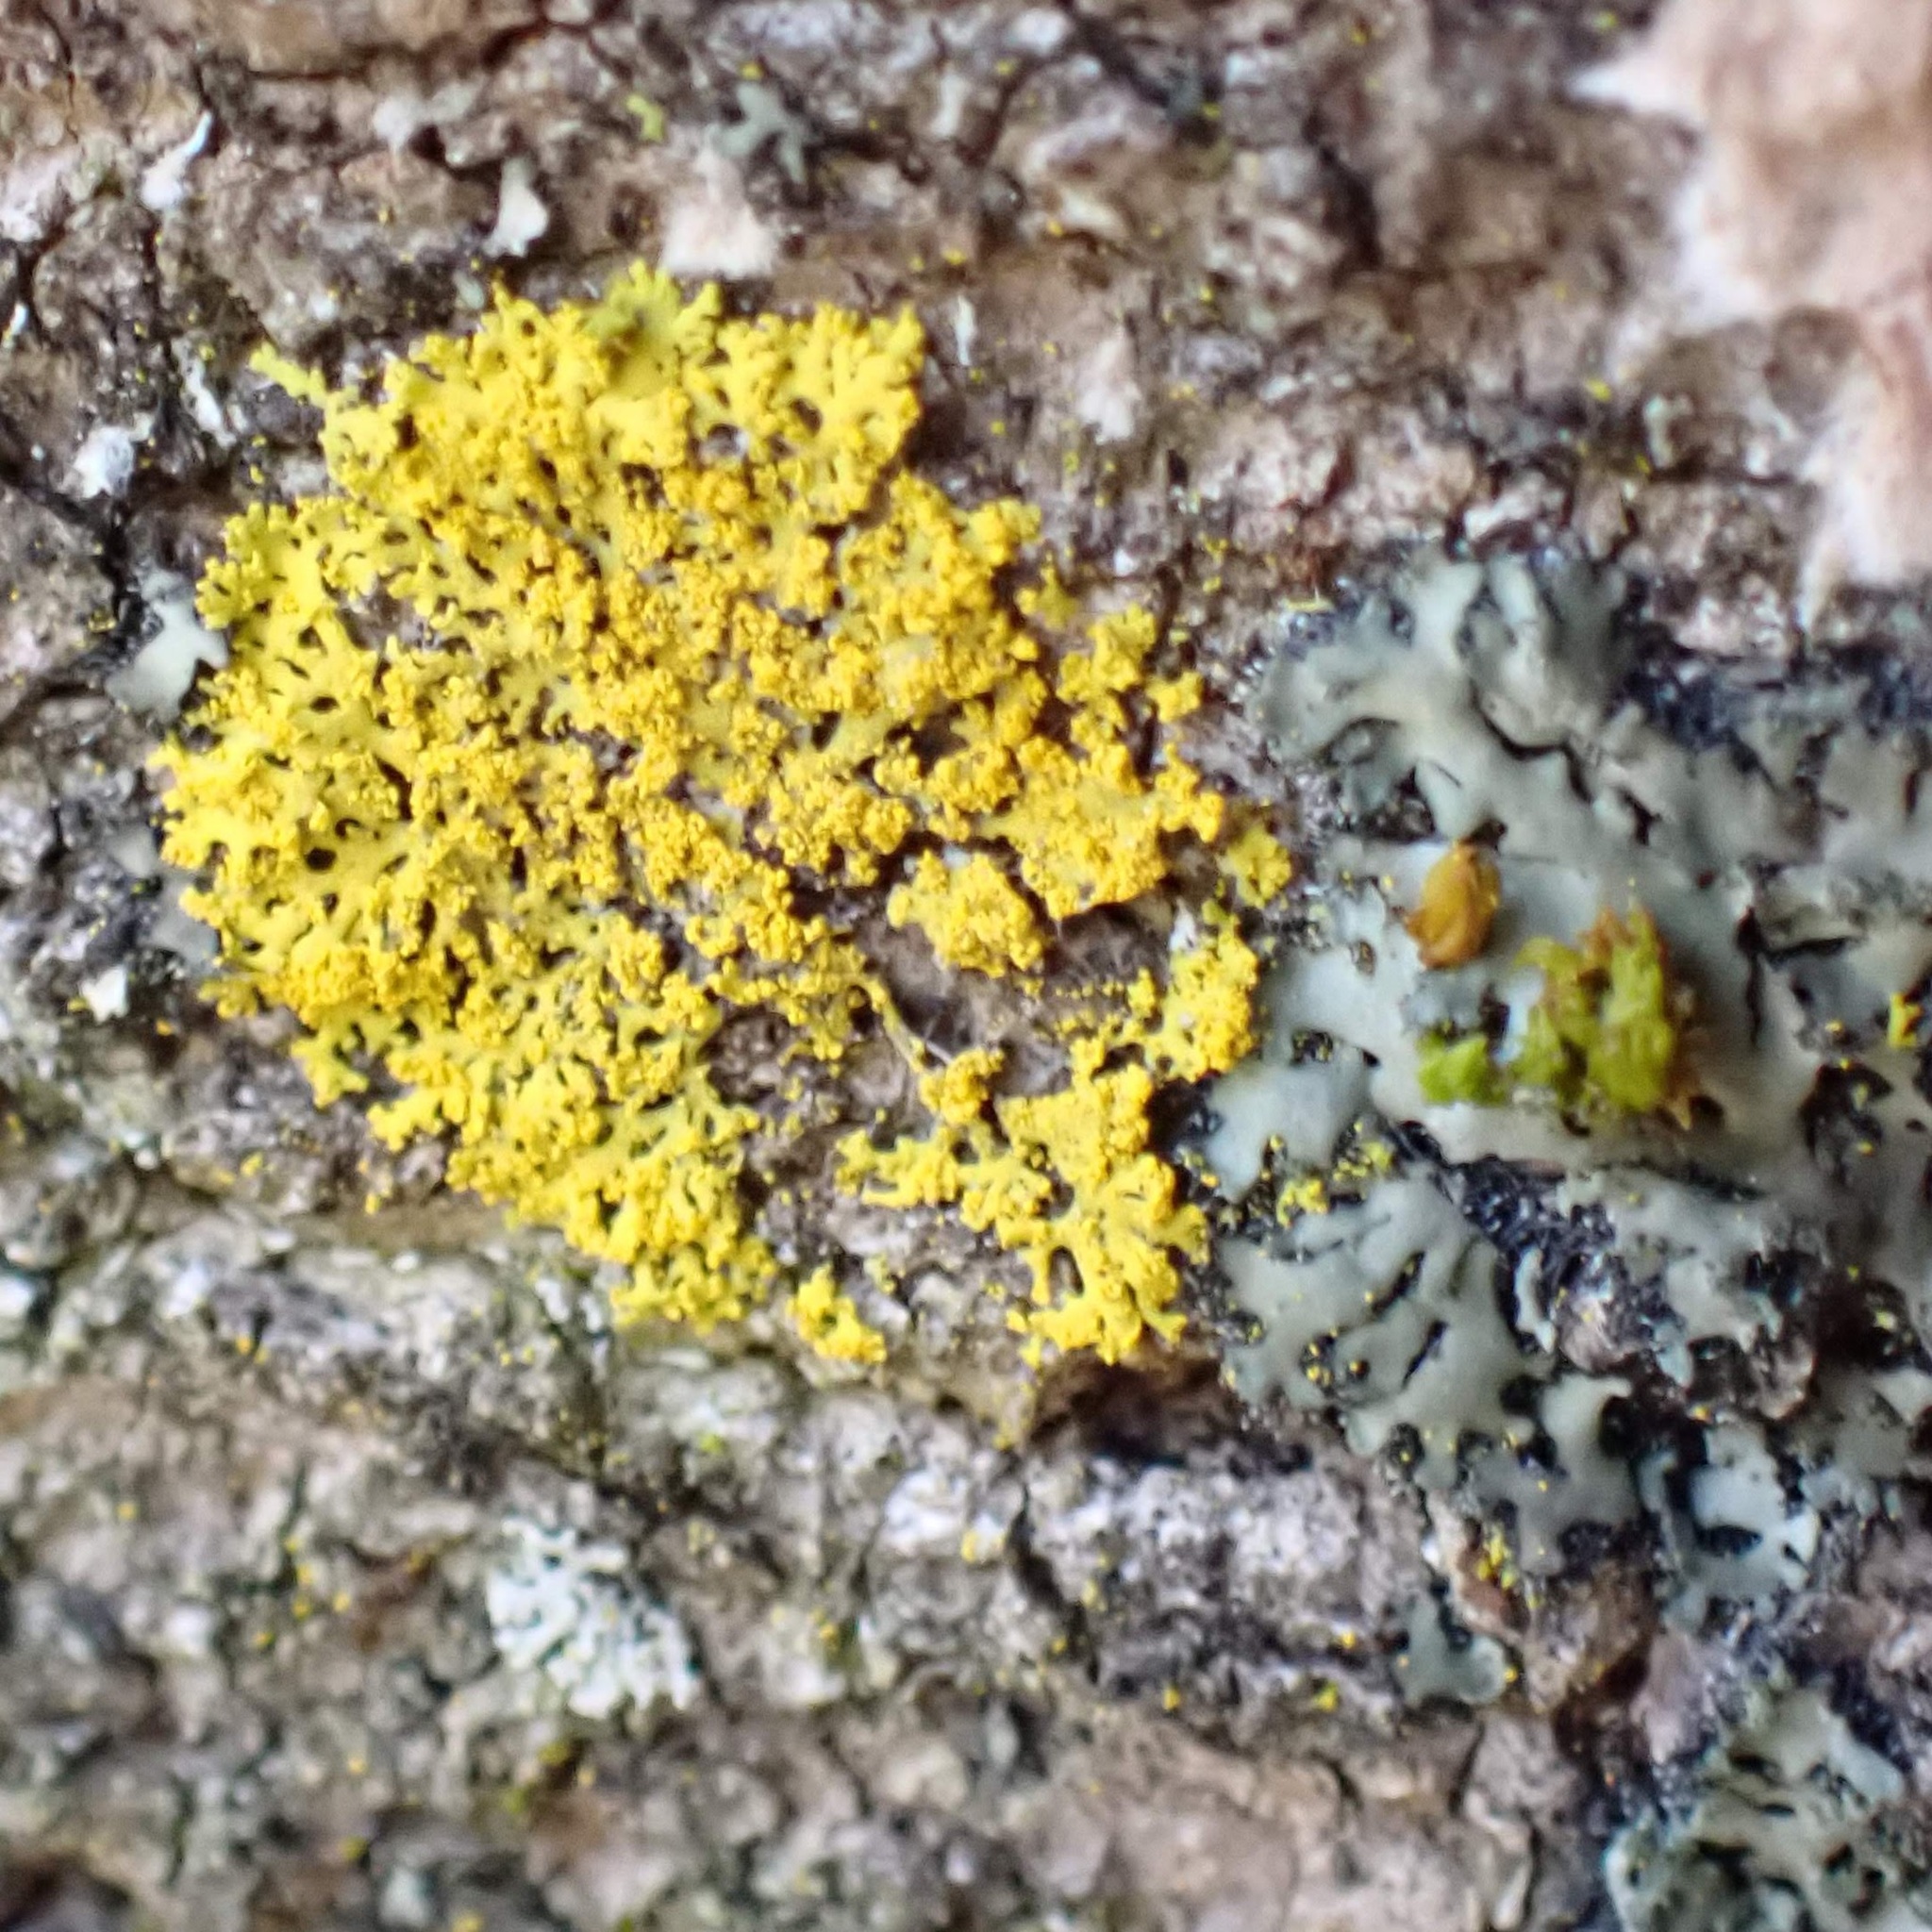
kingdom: Fungi
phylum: Ascomycota
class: Candelariomycetes
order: Candelariales
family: Candelariaceae
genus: Candelaria
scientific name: Candelaria concolor
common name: Candleflame lichen
